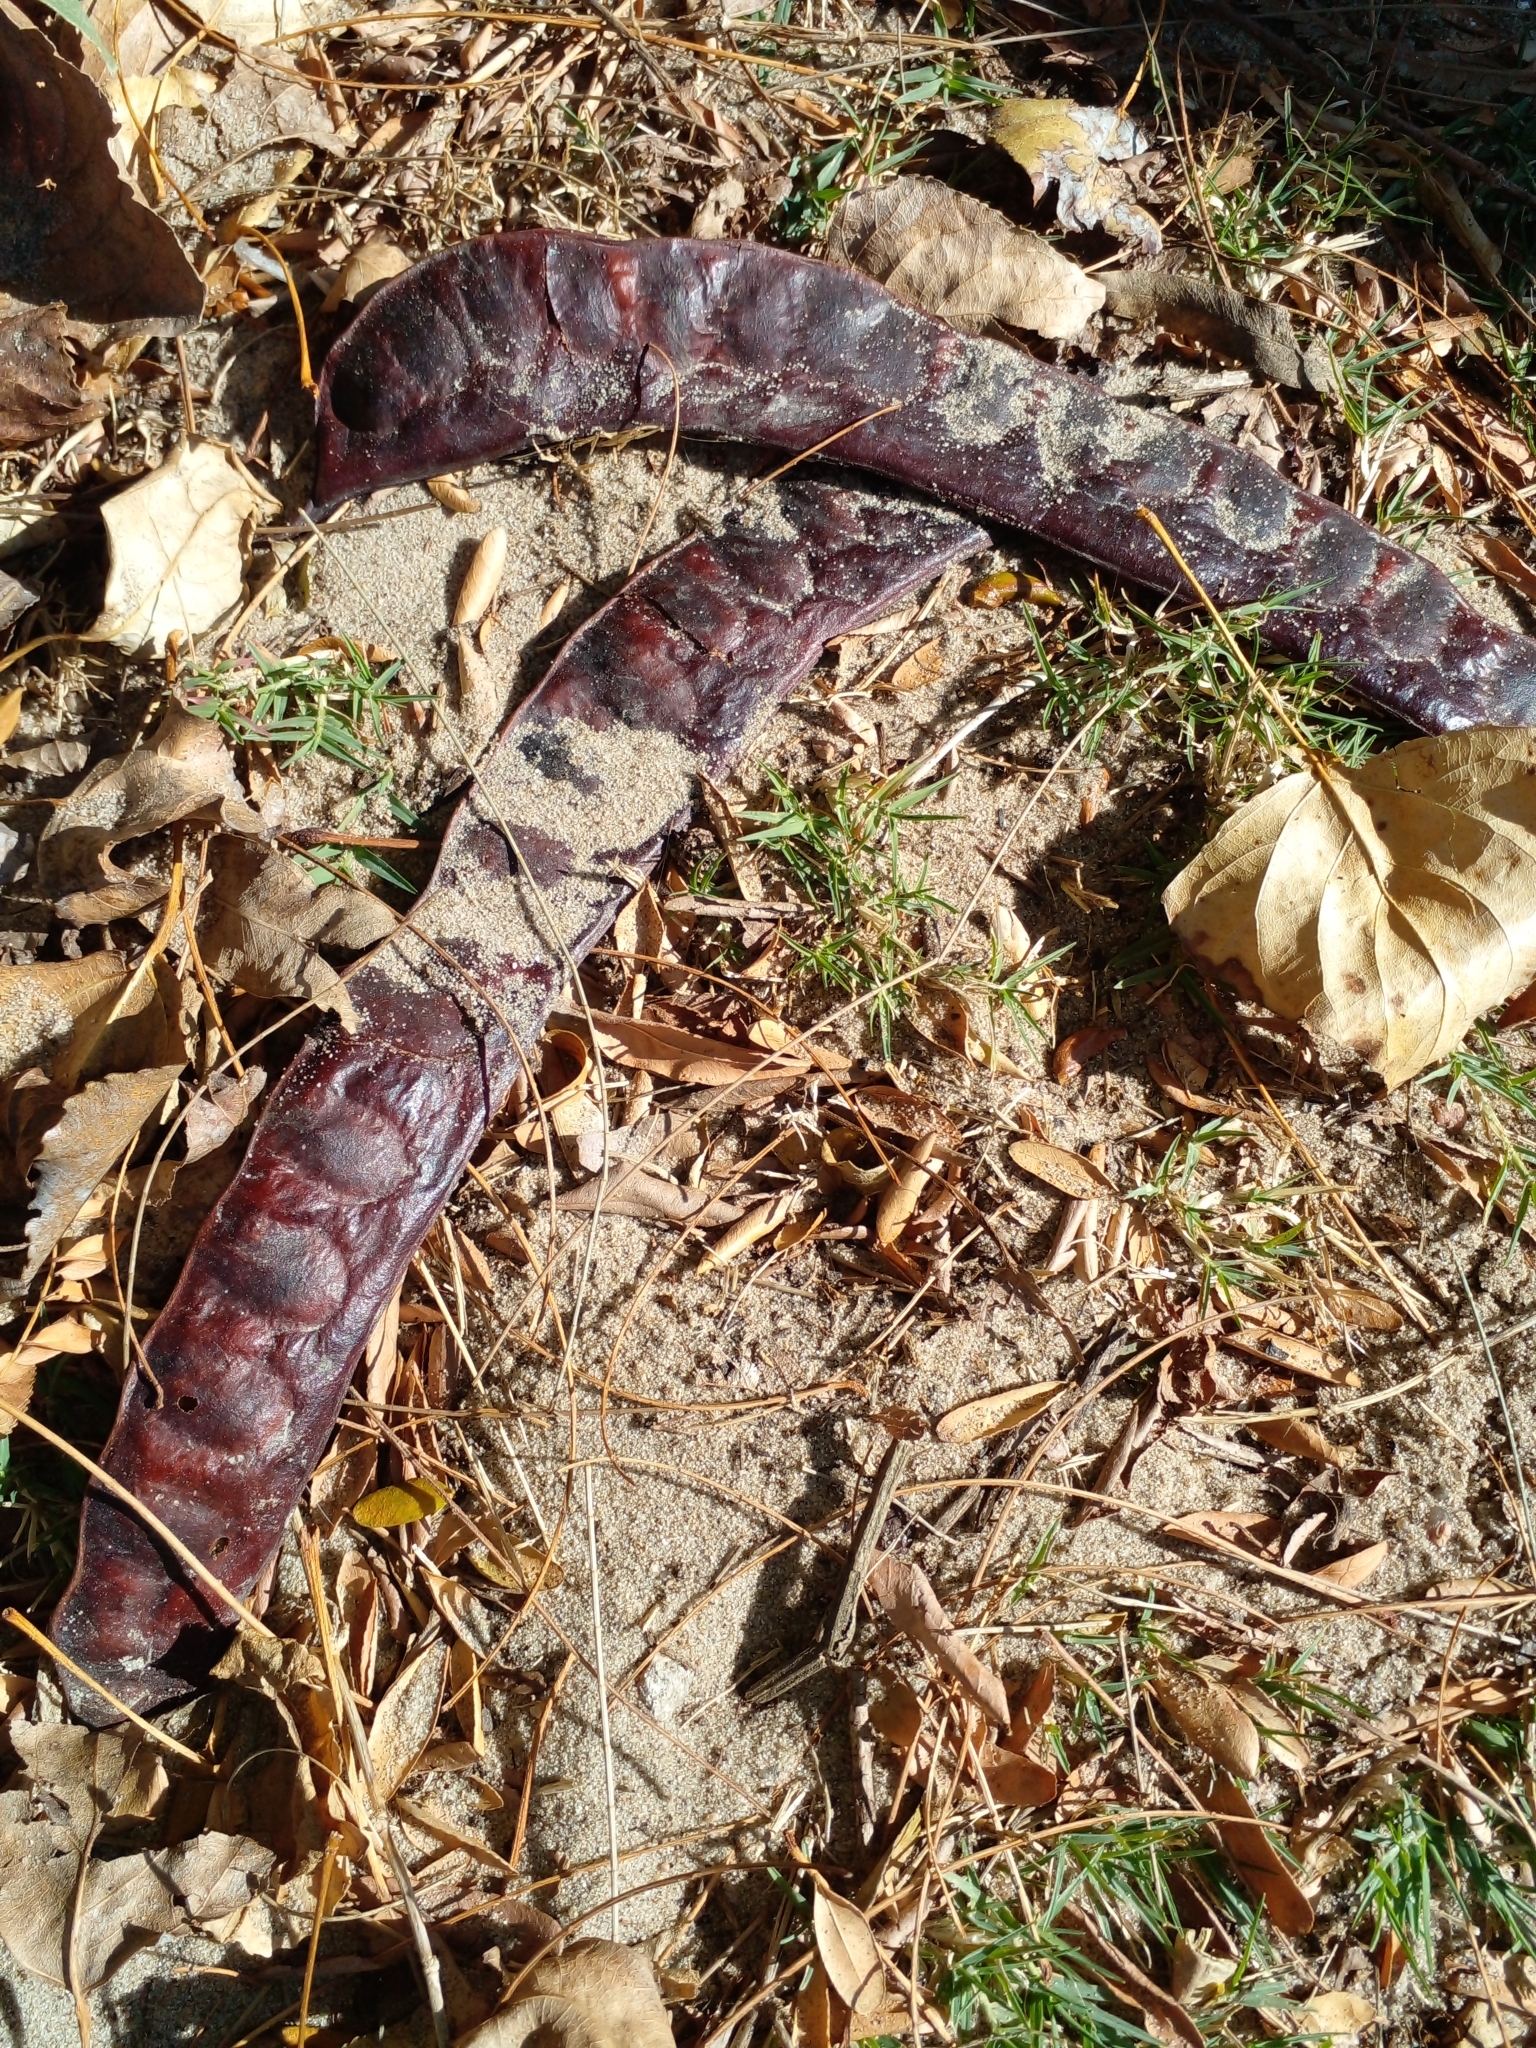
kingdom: Plantae
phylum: Tracheophyta
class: Magnoliopsida
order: Fabales
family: Fabaceae
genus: Gleditsia
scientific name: Gleditsia triacanthos
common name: Common honeylocust
